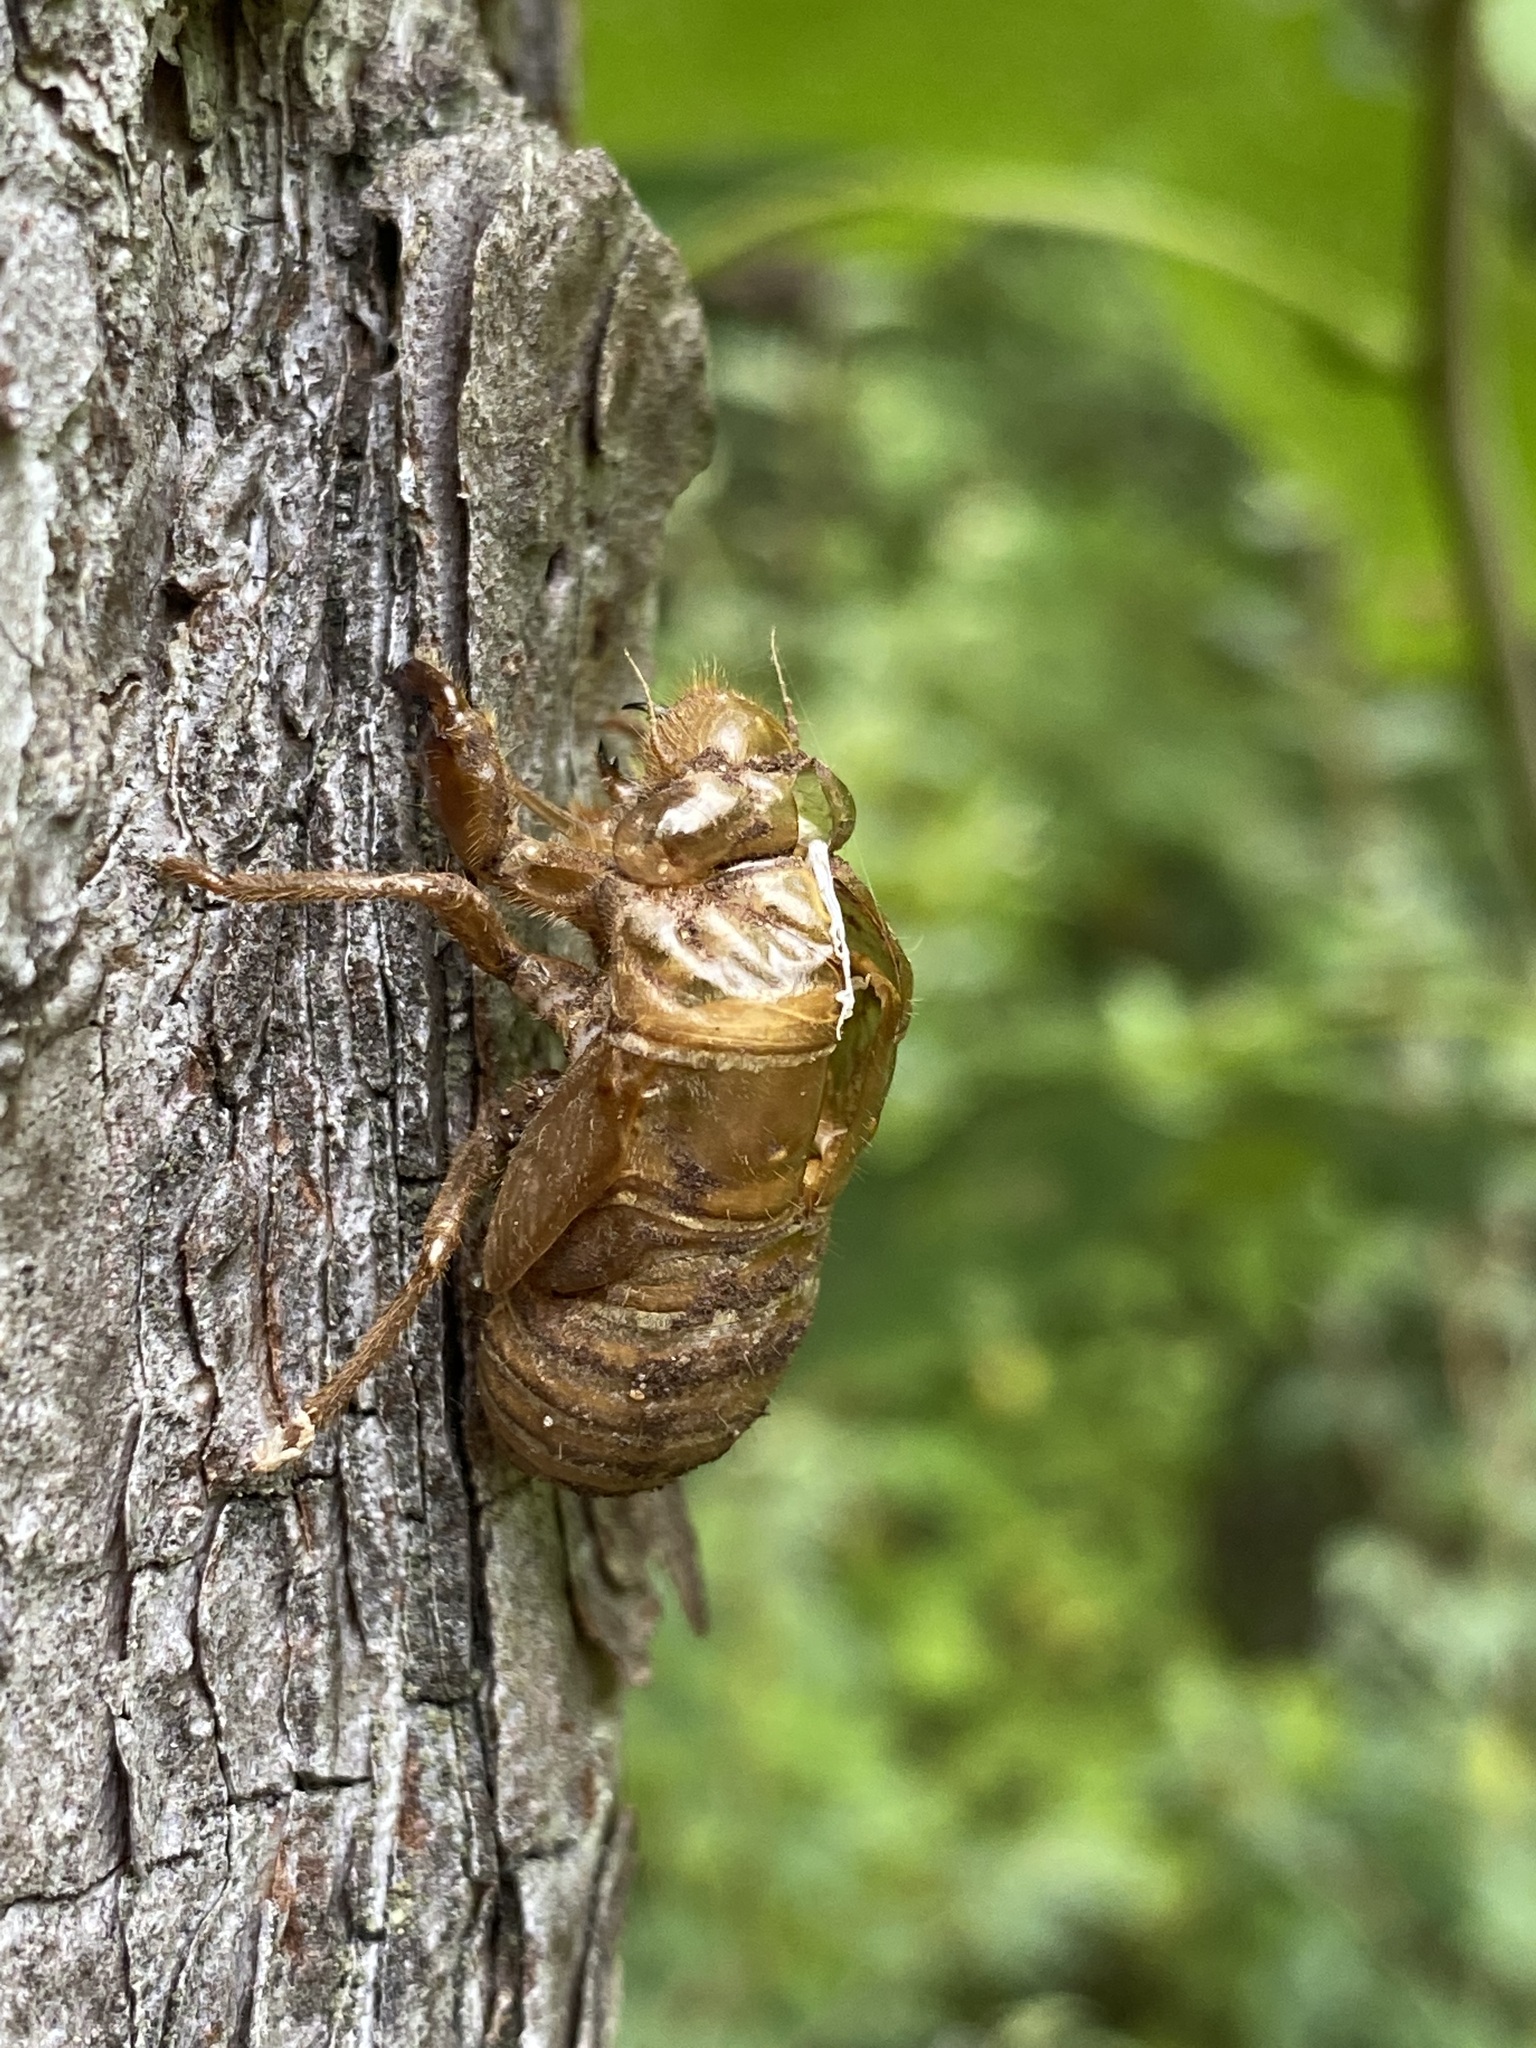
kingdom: Animalia
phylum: Arthropoda
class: Insecta
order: Hemiptera
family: Cicadidae
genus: Neotibicen
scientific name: Neotibicen canicularis
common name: God-day cicada
